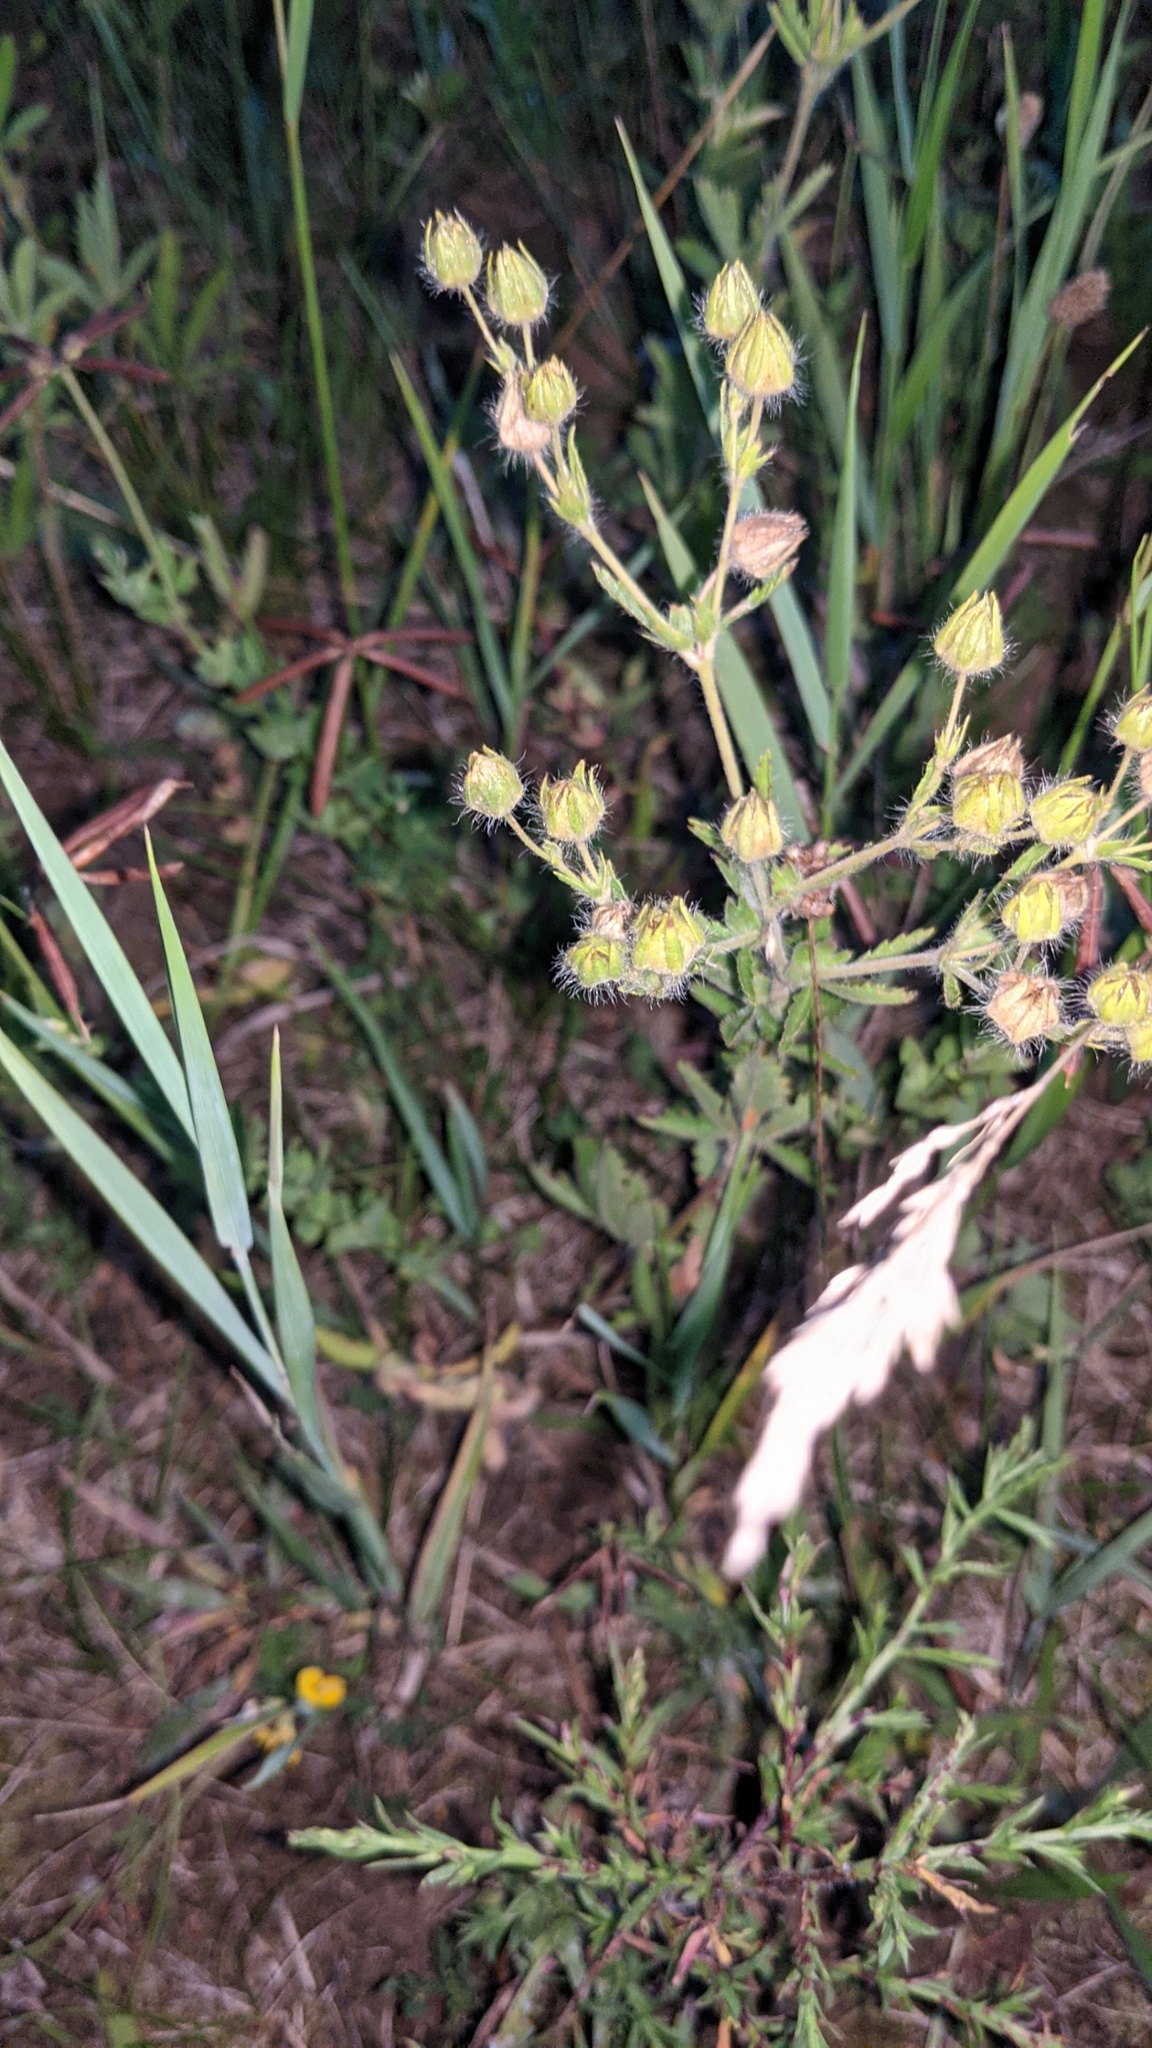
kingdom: Plantae
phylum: Tracheophyta
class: Magnoliopsida
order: Rosales
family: Rosaceae
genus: Potentilla
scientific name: Potentilla recta
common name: Sulphur cinquefoil
